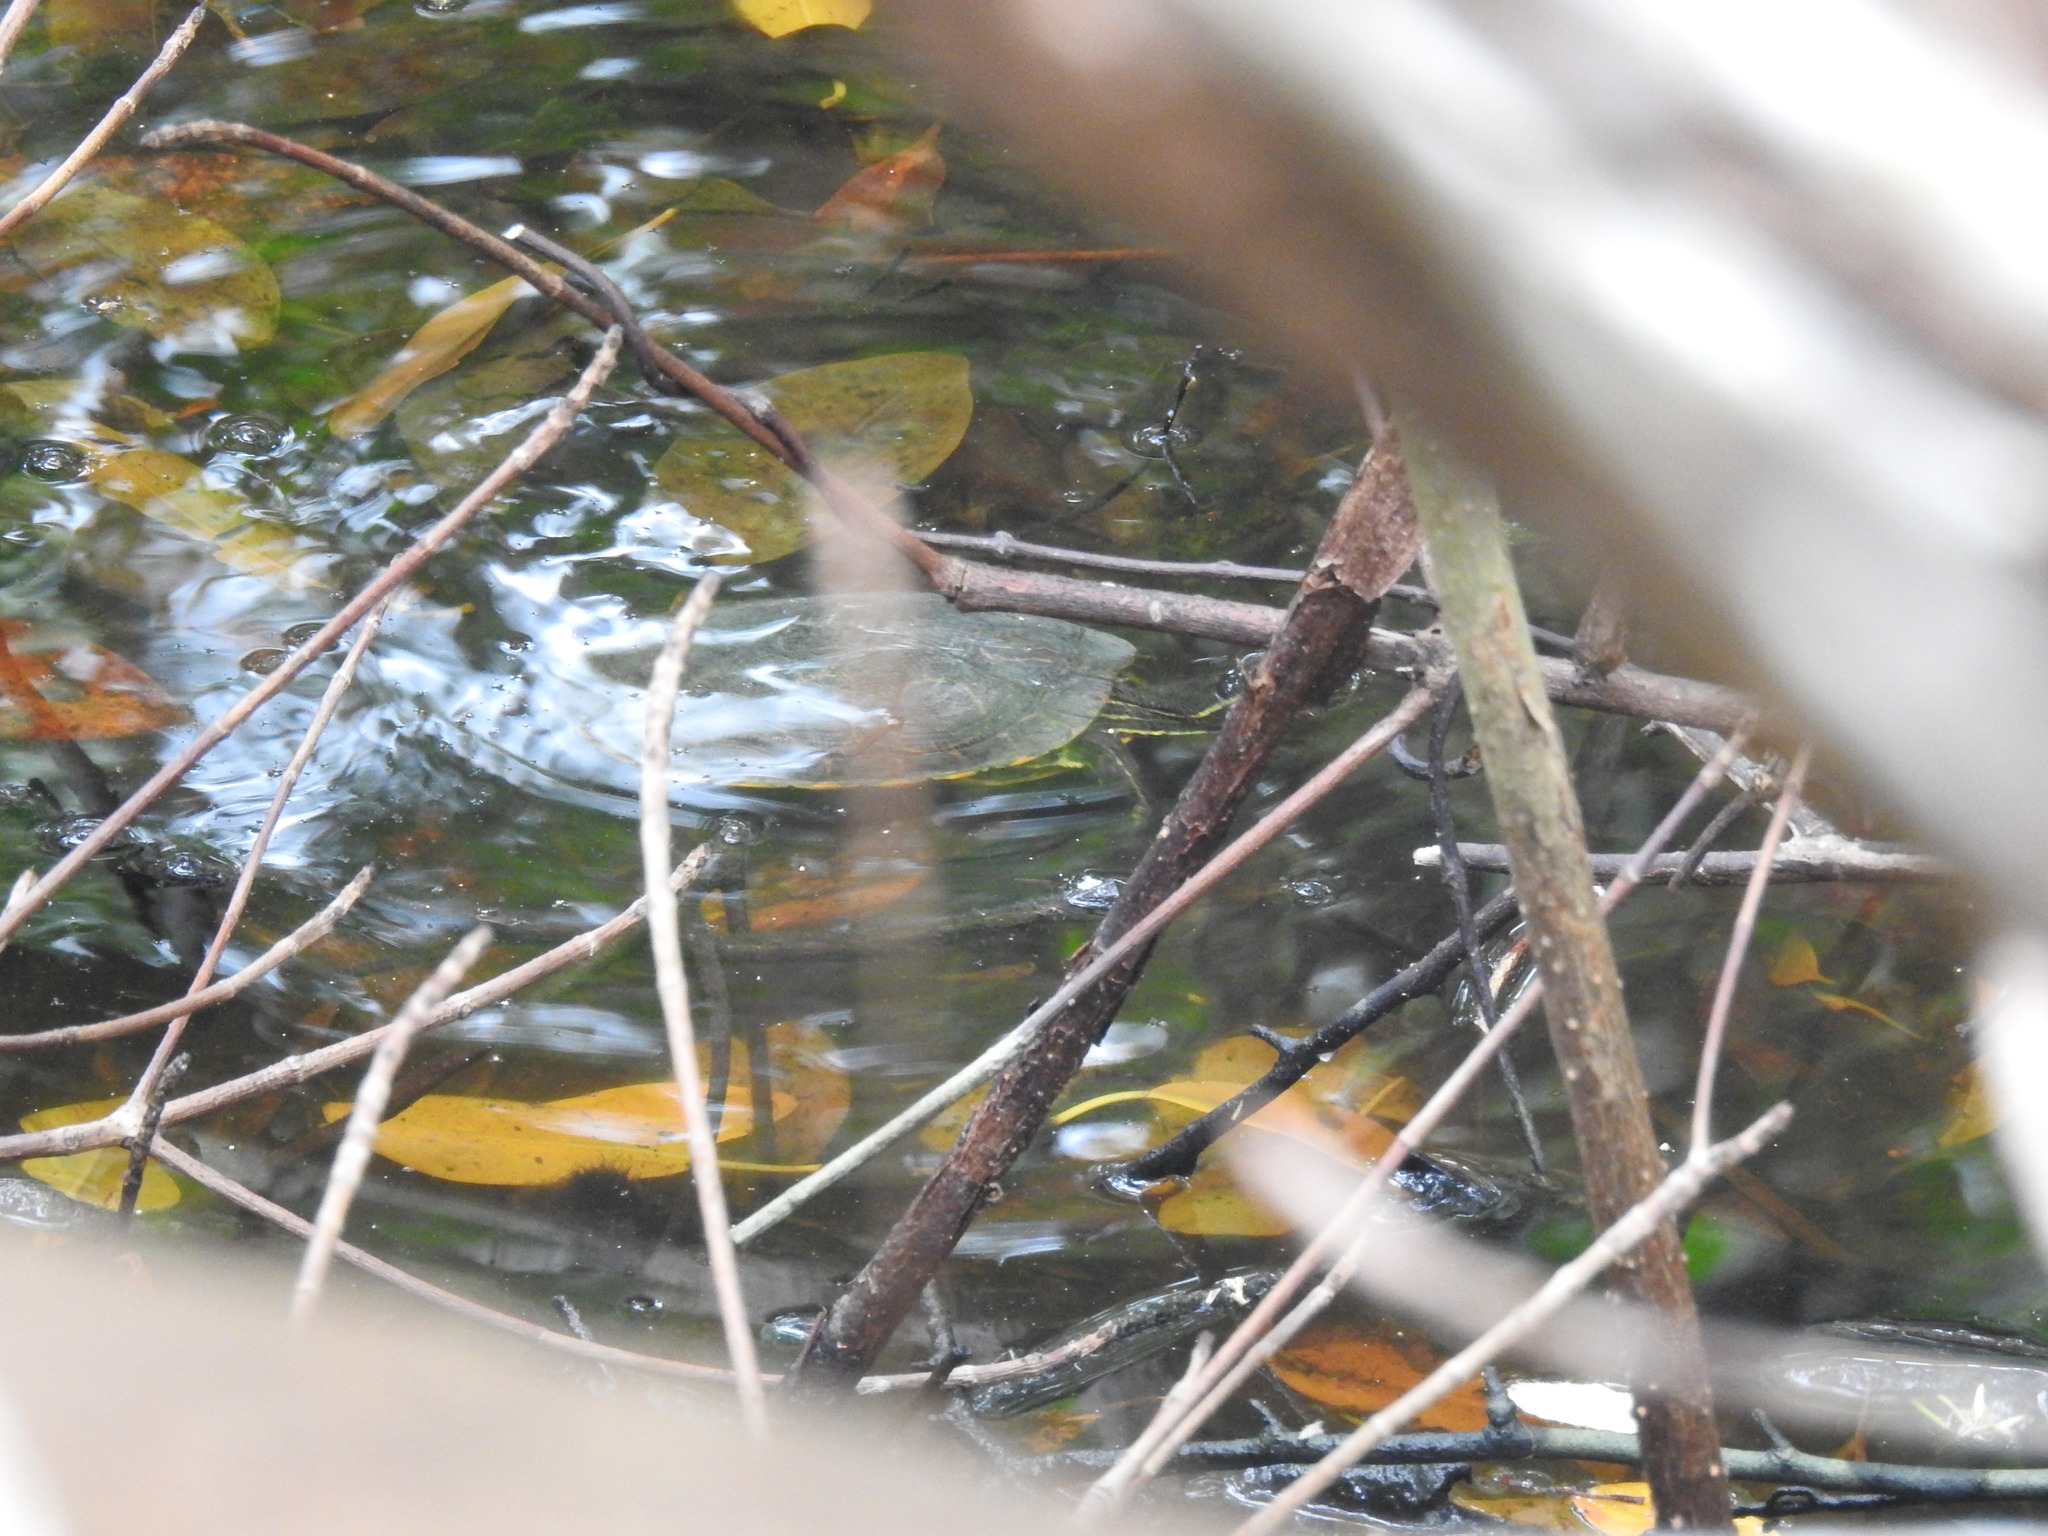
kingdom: Animalia
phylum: Chordata
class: Testudines
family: Emydidae
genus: Trachemys
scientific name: Trachemys venusta
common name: Mesoamerican slider
